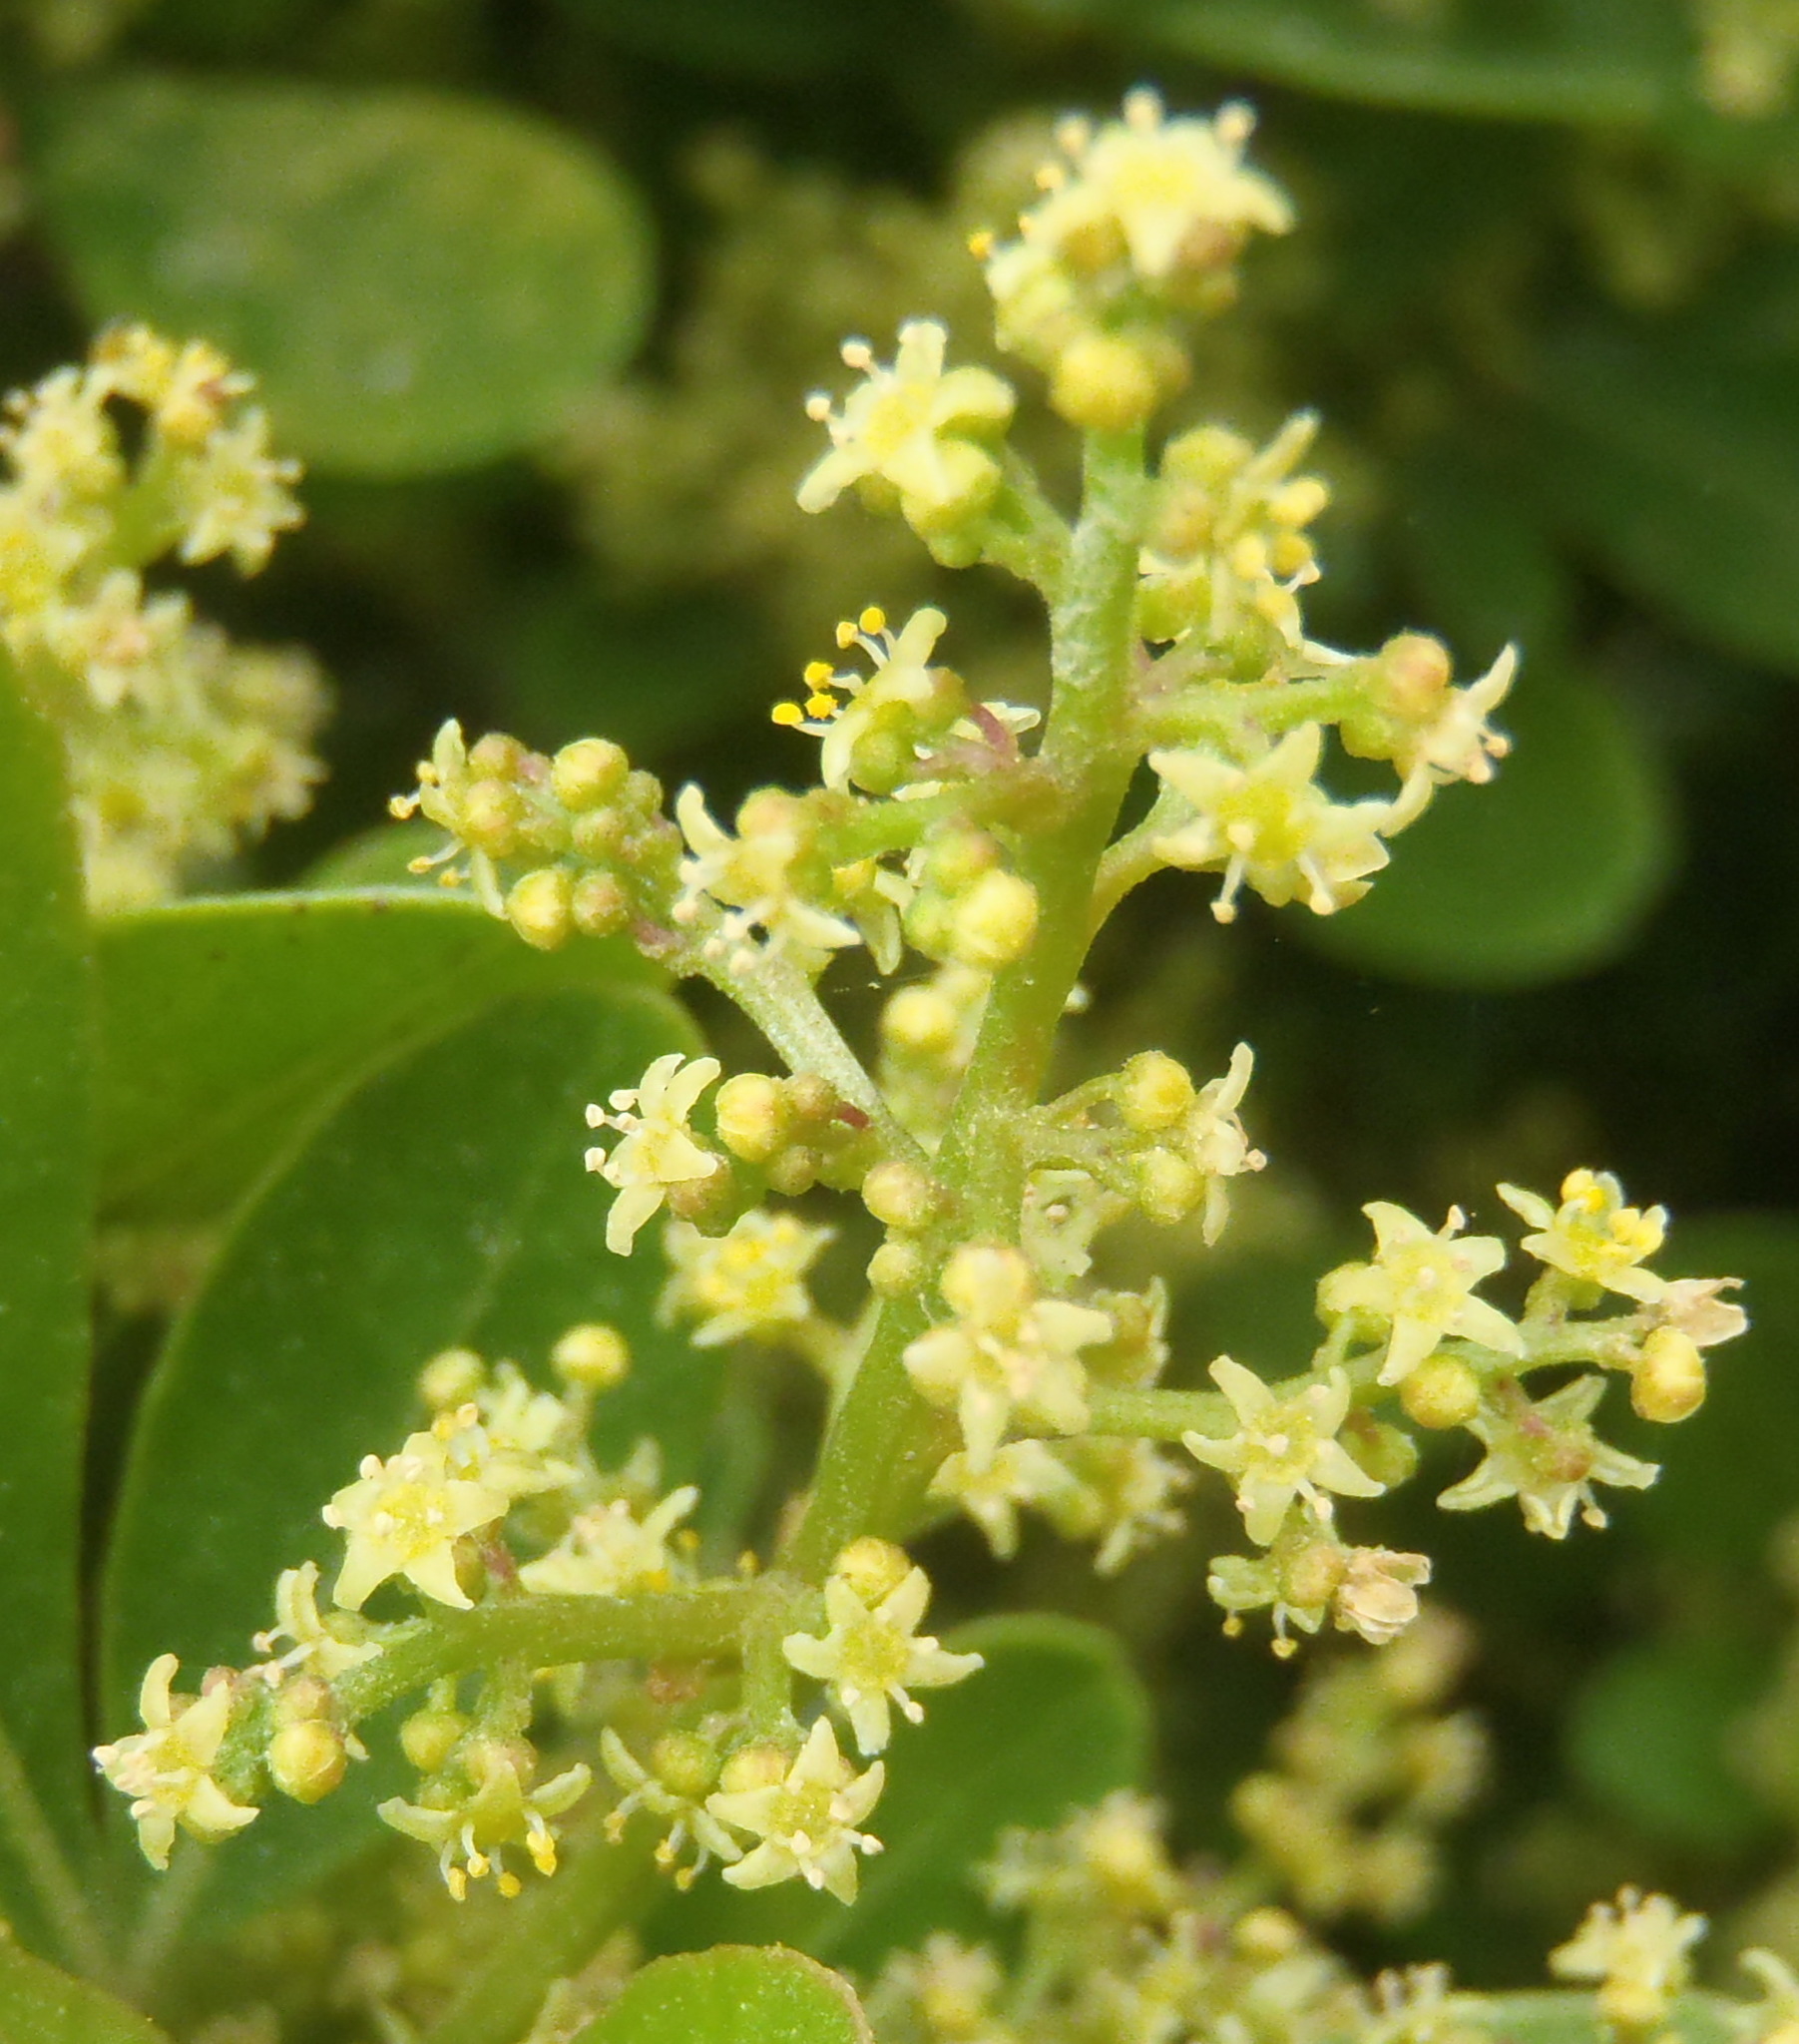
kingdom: Plantae
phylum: Tracheophyta
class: Magnoliopsida
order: Sapindales
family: Anacardiaceae
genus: Searsia
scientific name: Searsia lucida
